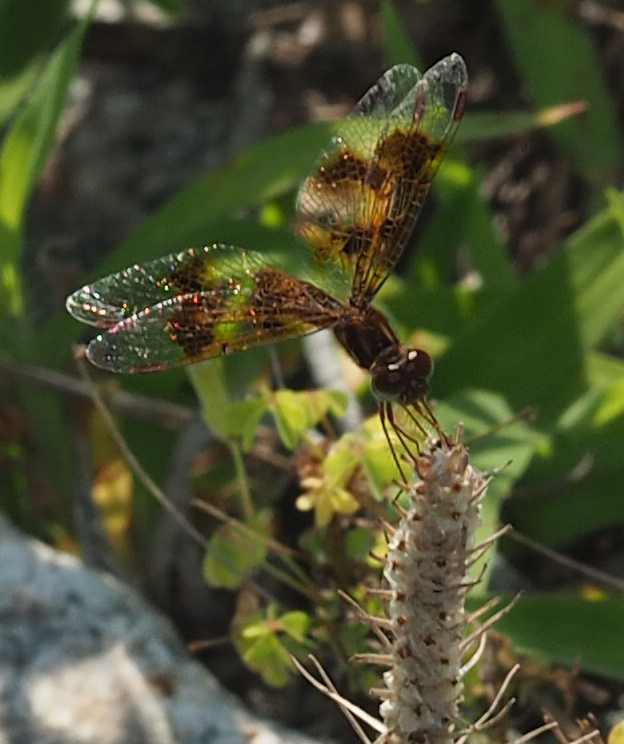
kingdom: Animalia
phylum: Arthropoda
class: Insecta
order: Odonata
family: Libellulidae
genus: Perithemis
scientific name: Perithemis tenera
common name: Eastern amberwing
